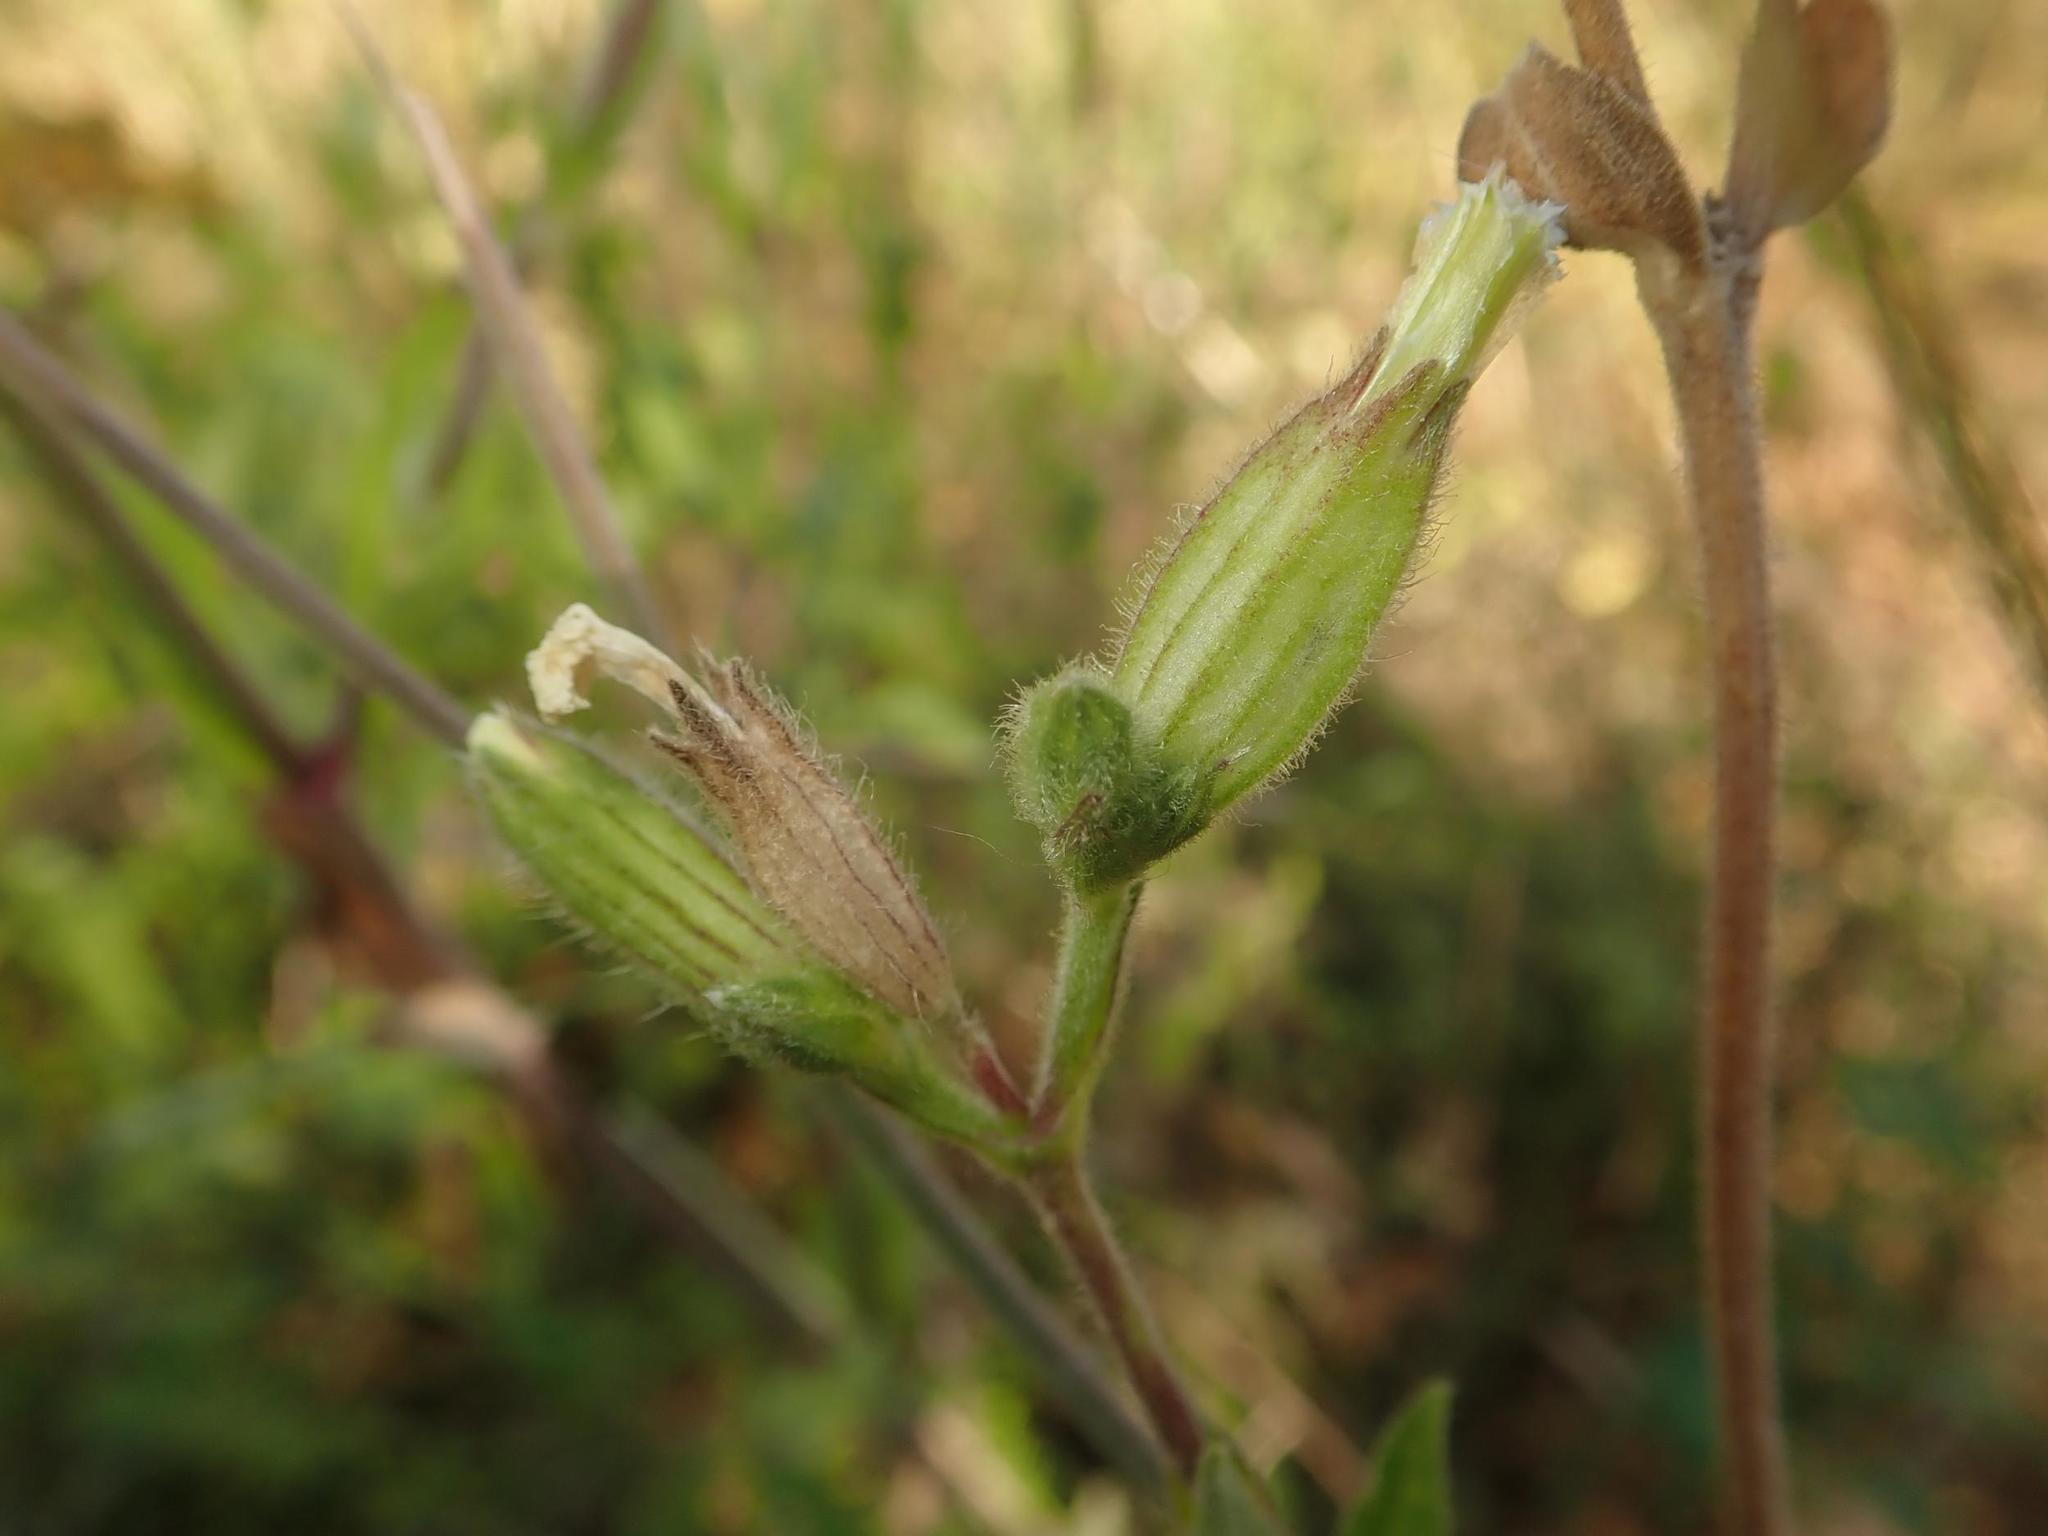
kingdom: Plantae
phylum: Tracheophyta
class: Magnoliopsida
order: Caryophyllales
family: Caryophyllaceae
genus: Silene
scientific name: Silene latifolia
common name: White campion
